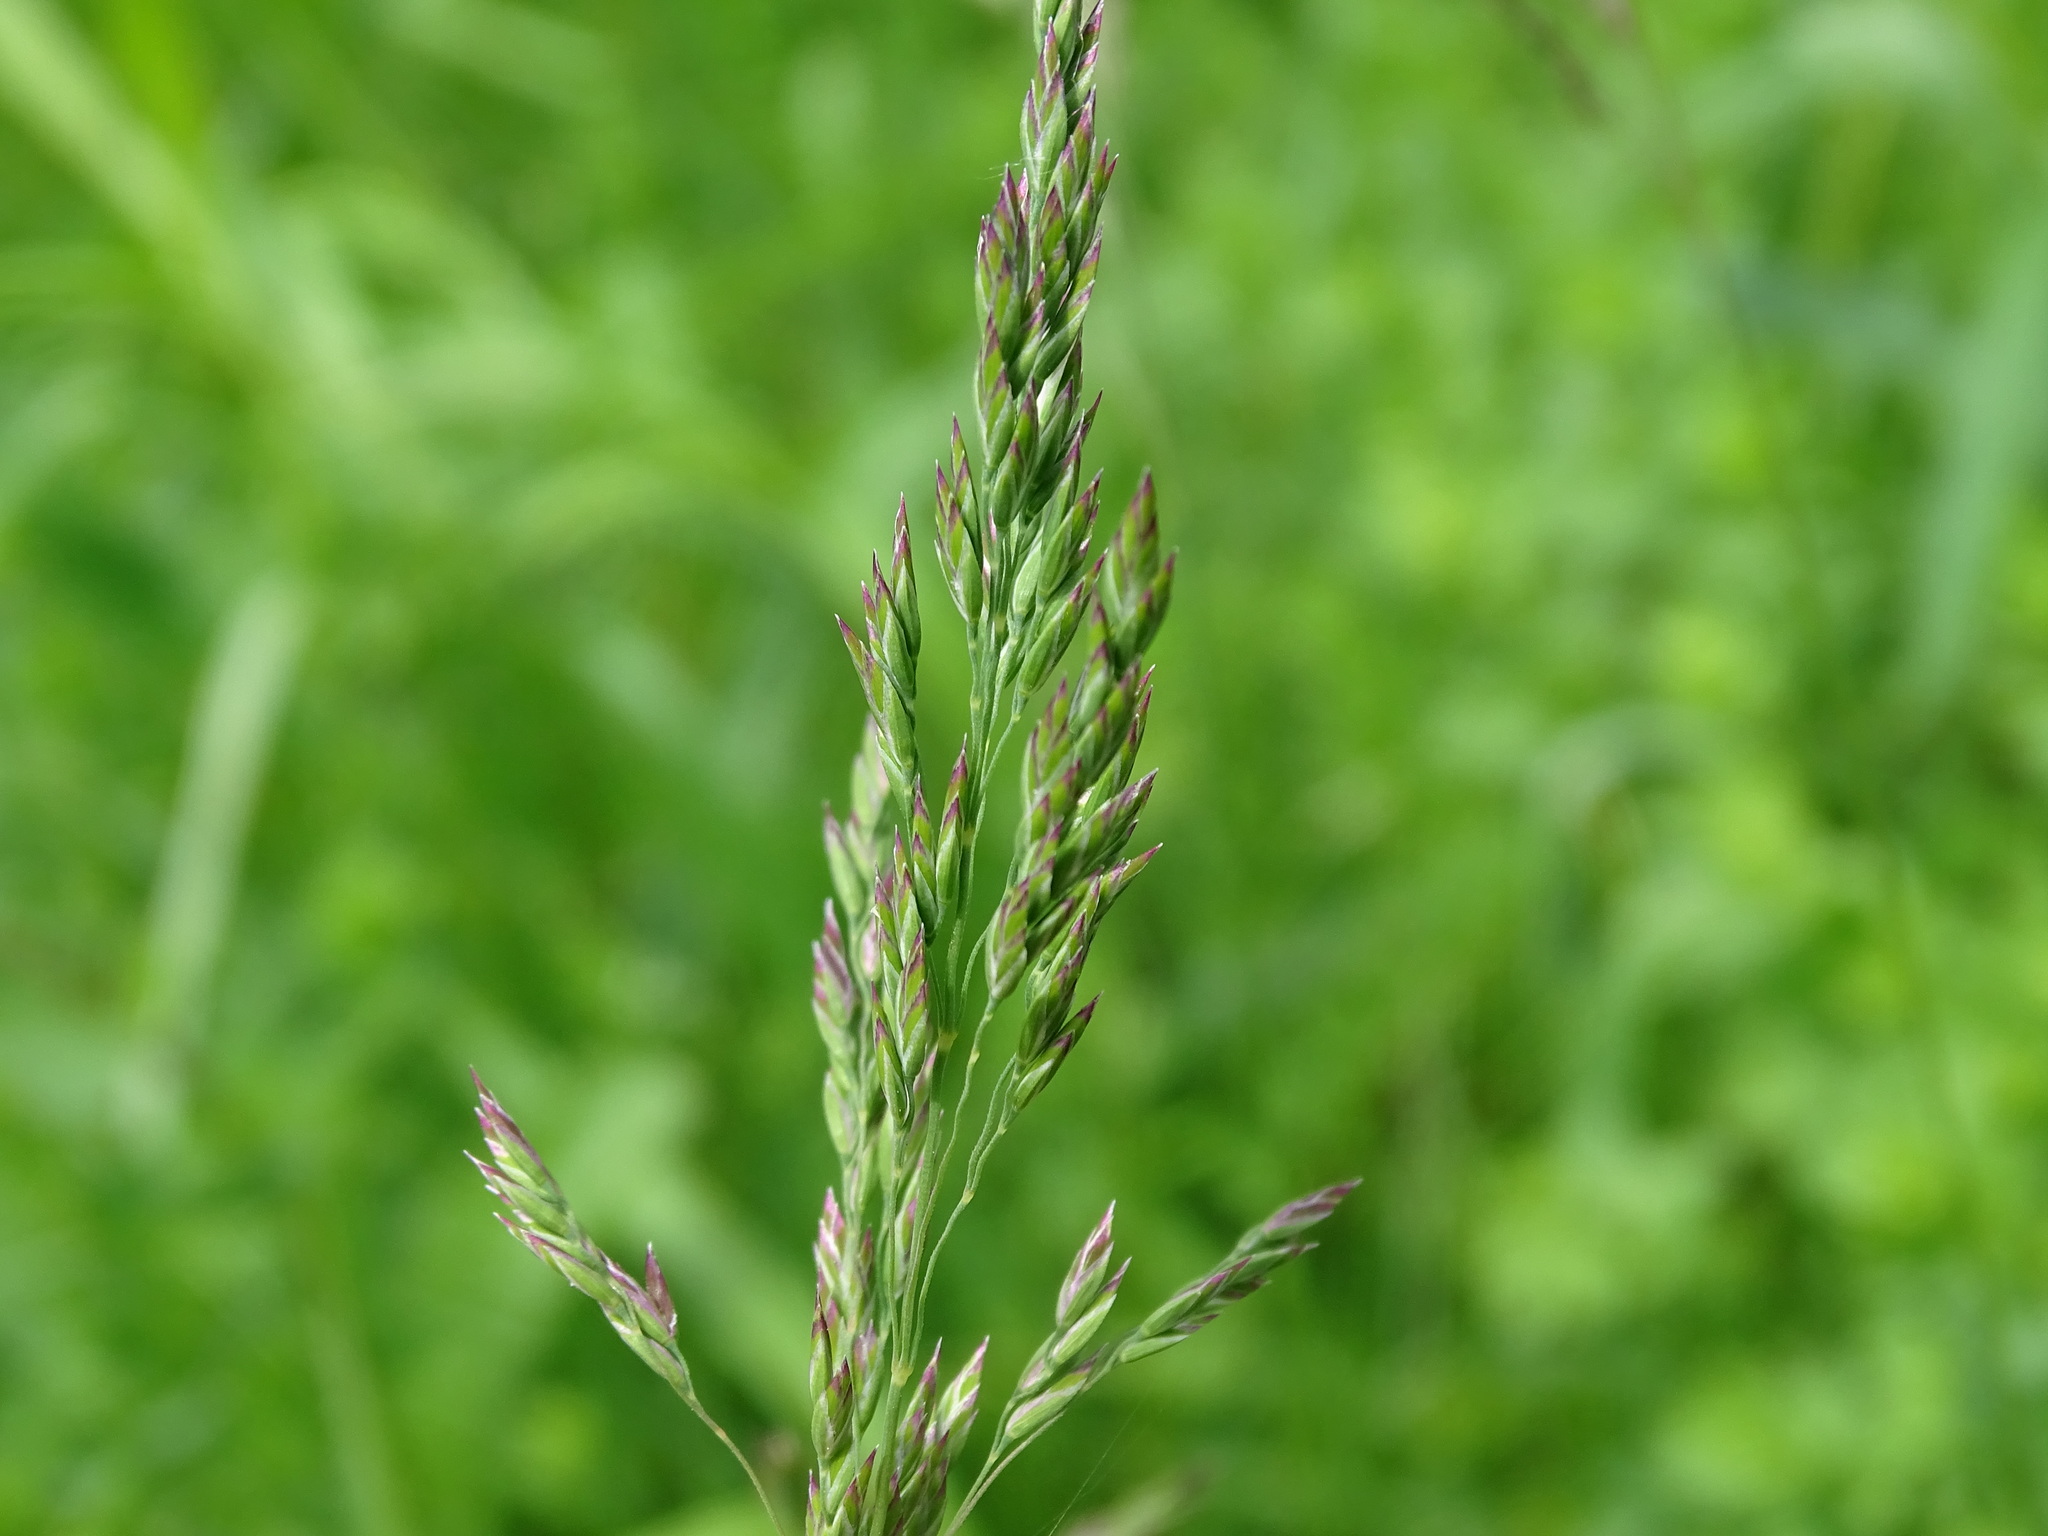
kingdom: Plantae
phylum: Tracheophyta
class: Liliopsida
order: Poales
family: Poaceae
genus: Poa
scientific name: Poa pratensis
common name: Kentucky bluegrass
